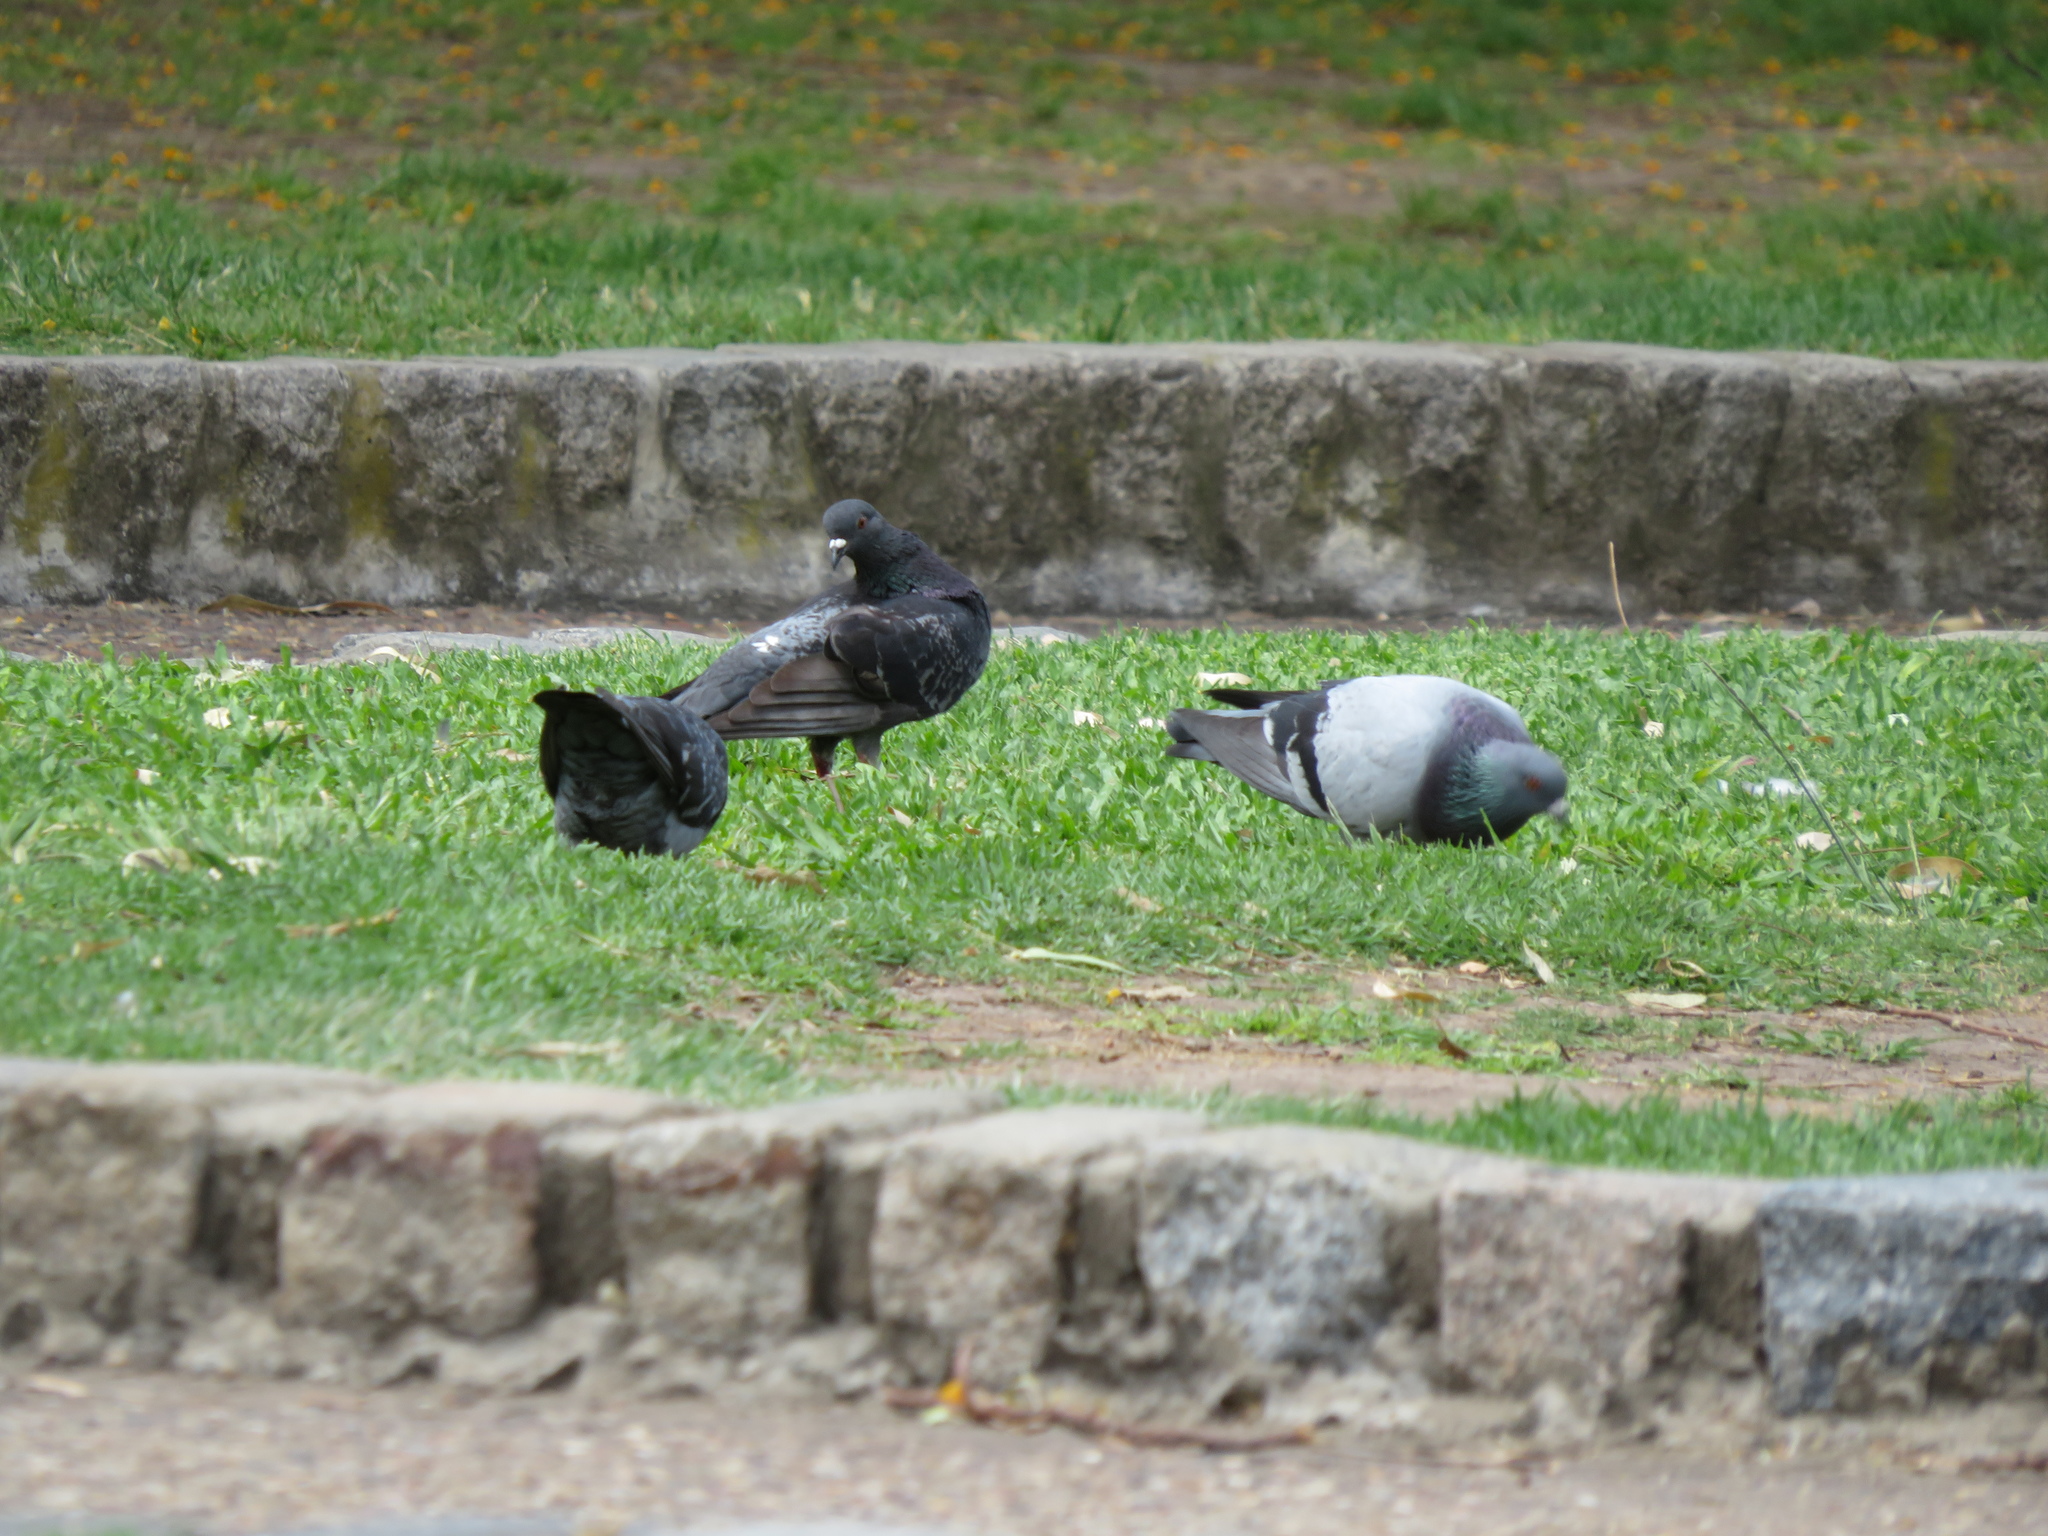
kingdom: Animalia
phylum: Chordata
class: Aves
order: Columbiformes
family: Columbidae
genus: Columba
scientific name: Columba livia
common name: Rock pigeon
